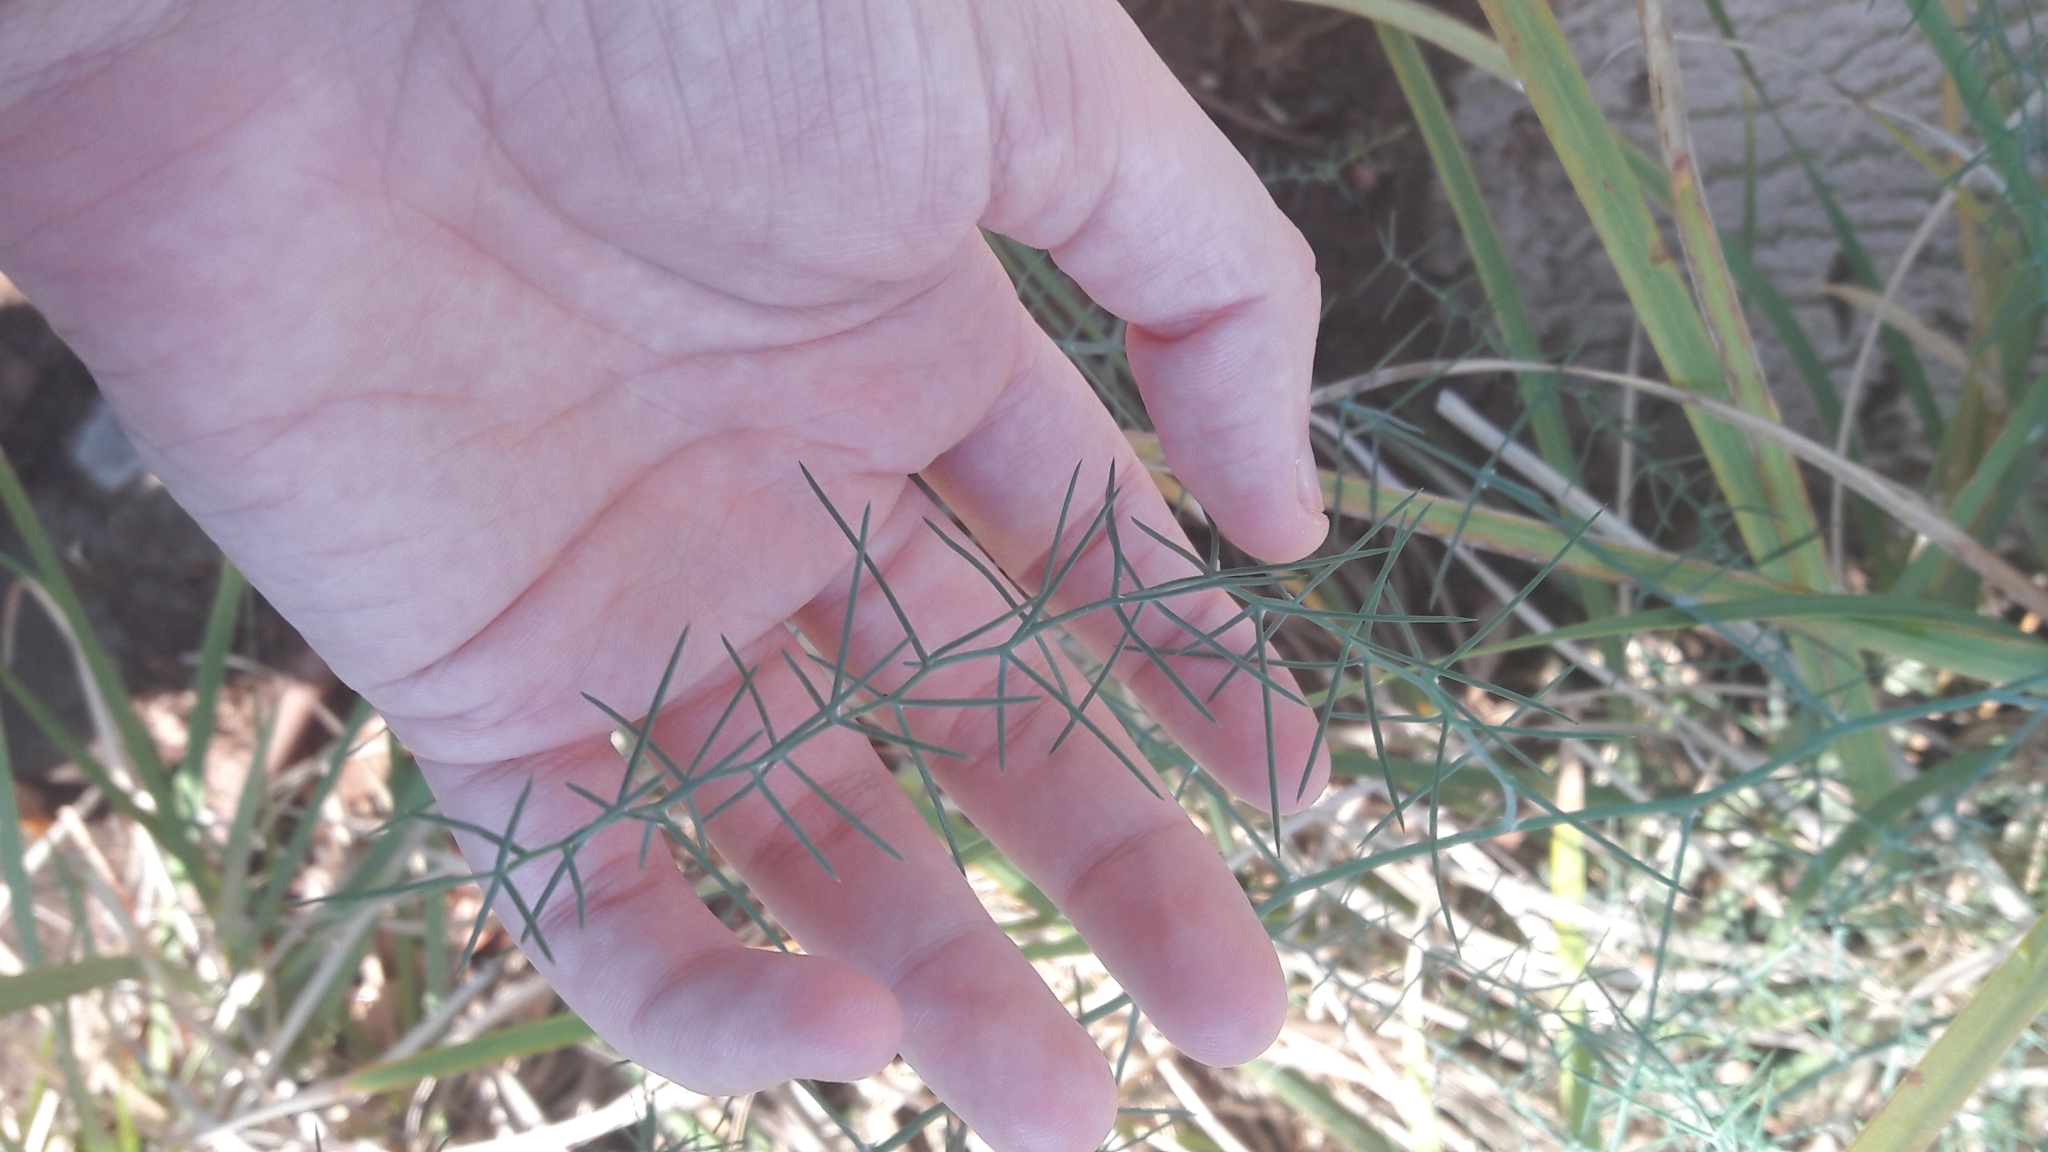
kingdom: Plantae
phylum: Tracheophyta
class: Liliopsida
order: Asparagales
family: Asparagaceae
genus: Asparagus
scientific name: Asparagus horridus
